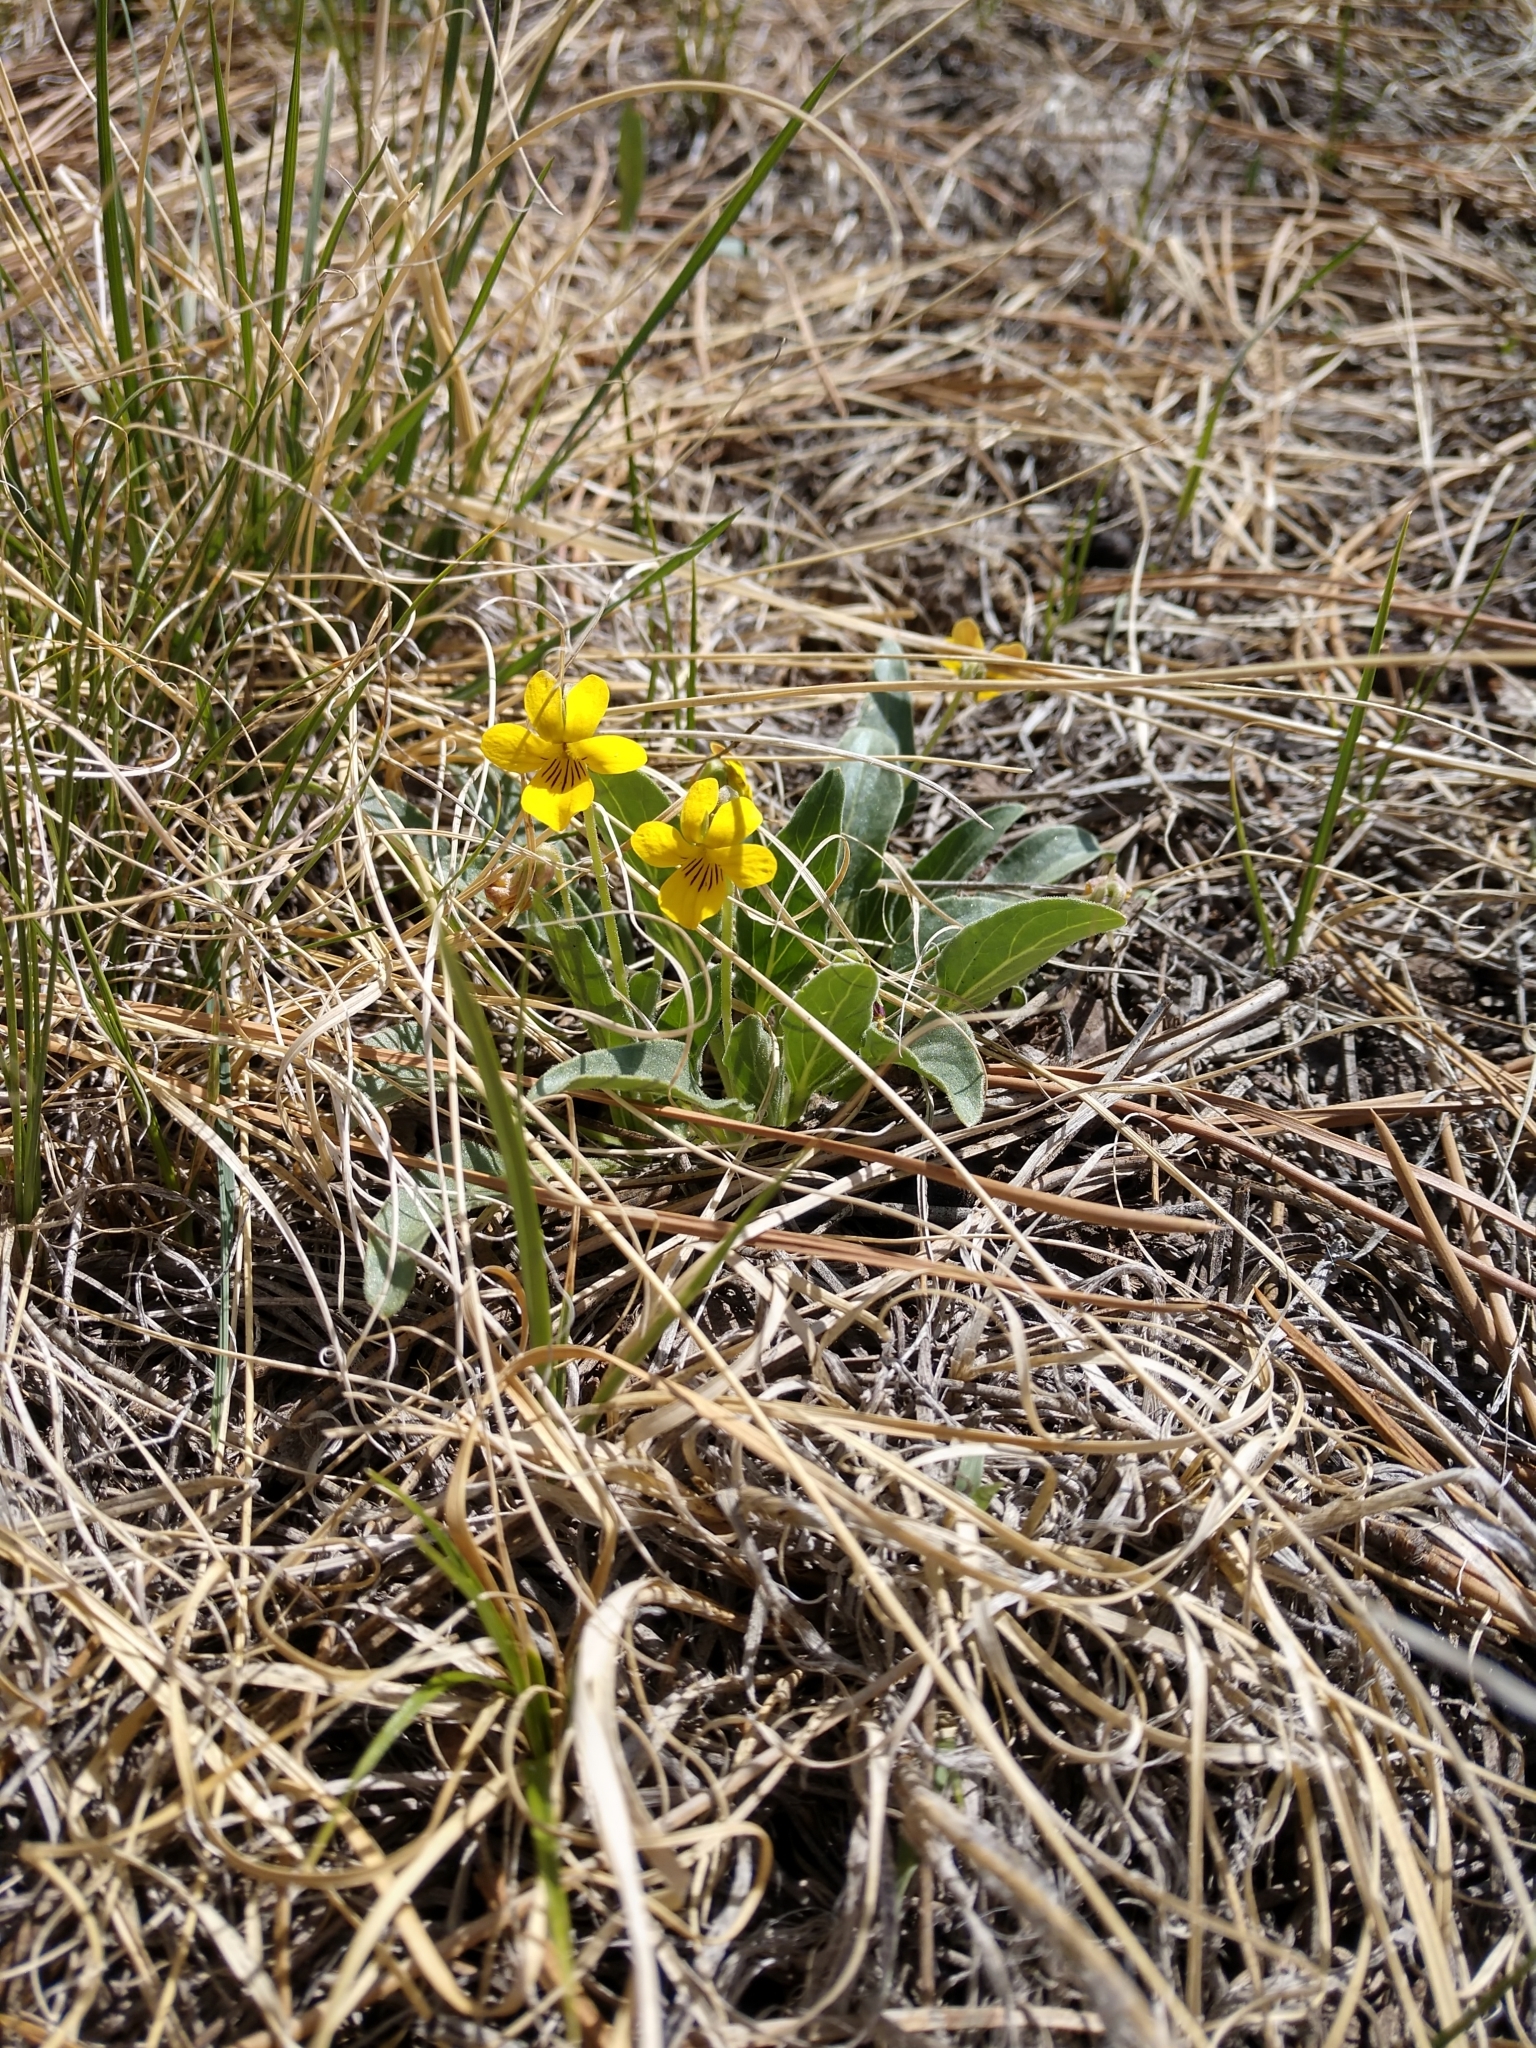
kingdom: Plantae
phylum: Tracheophyta
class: Magnoliopsida
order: Malpighiales
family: Violaceae
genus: Viola
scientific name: Viola nuttallii
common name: Yellow prairie violet
